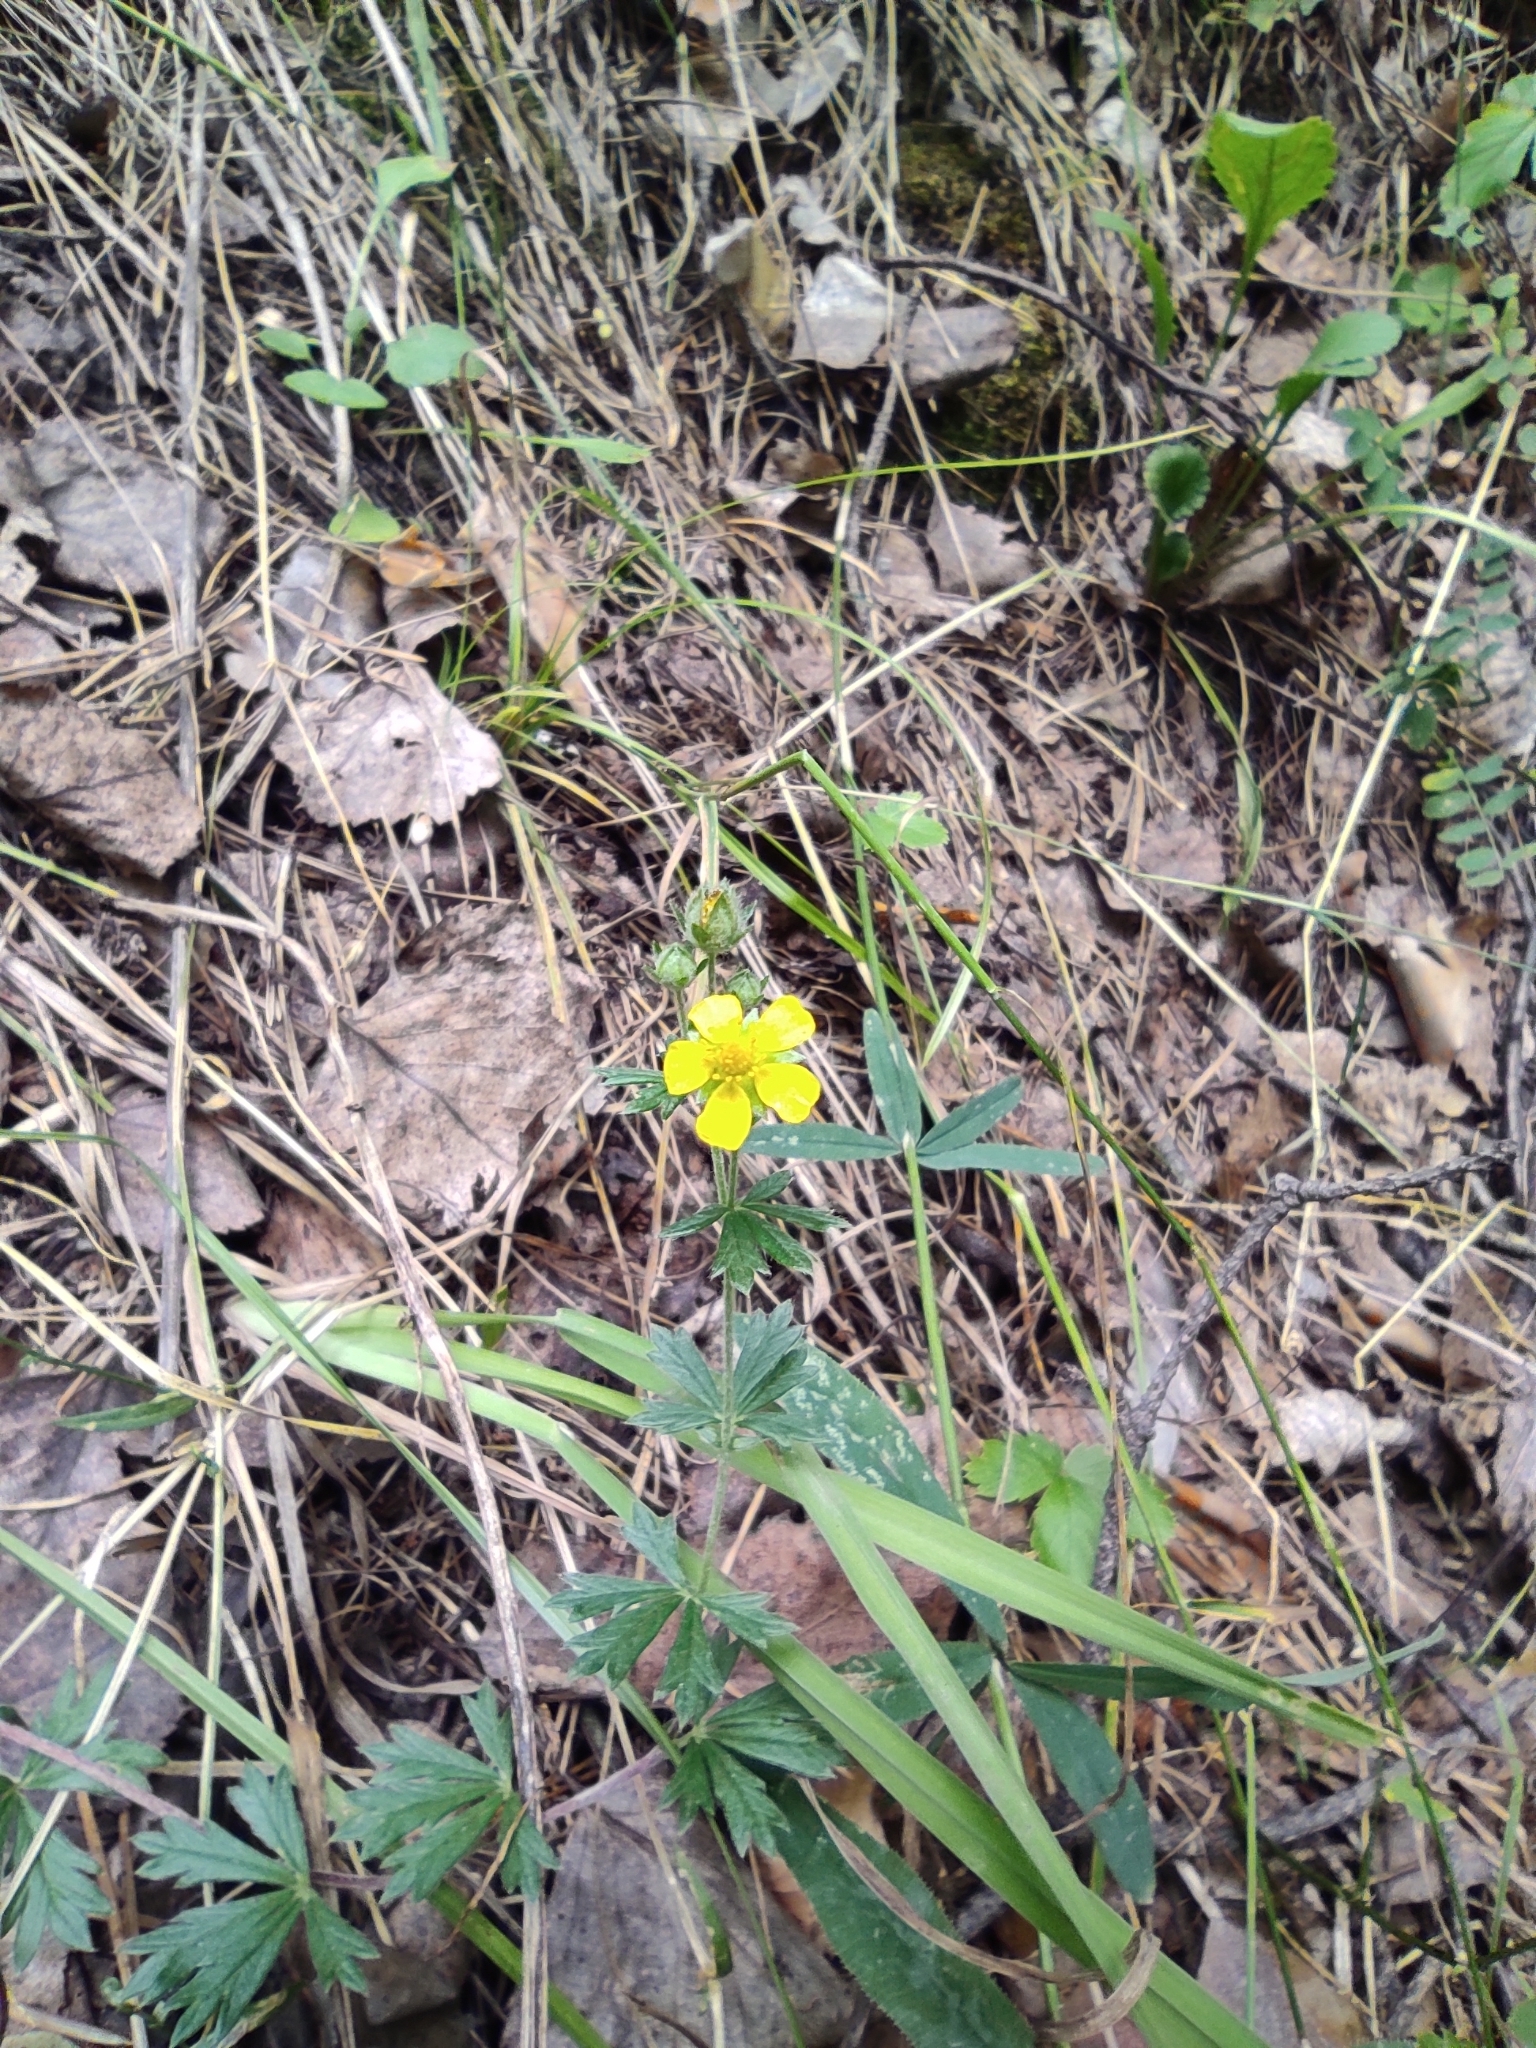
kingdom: Plantae
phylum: Tracheophyta
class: Magnoliopsida
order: Rosales
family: Rosaceae
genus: Potentilla
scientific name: Potentilla argentea
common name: Hoary cinquefoil
